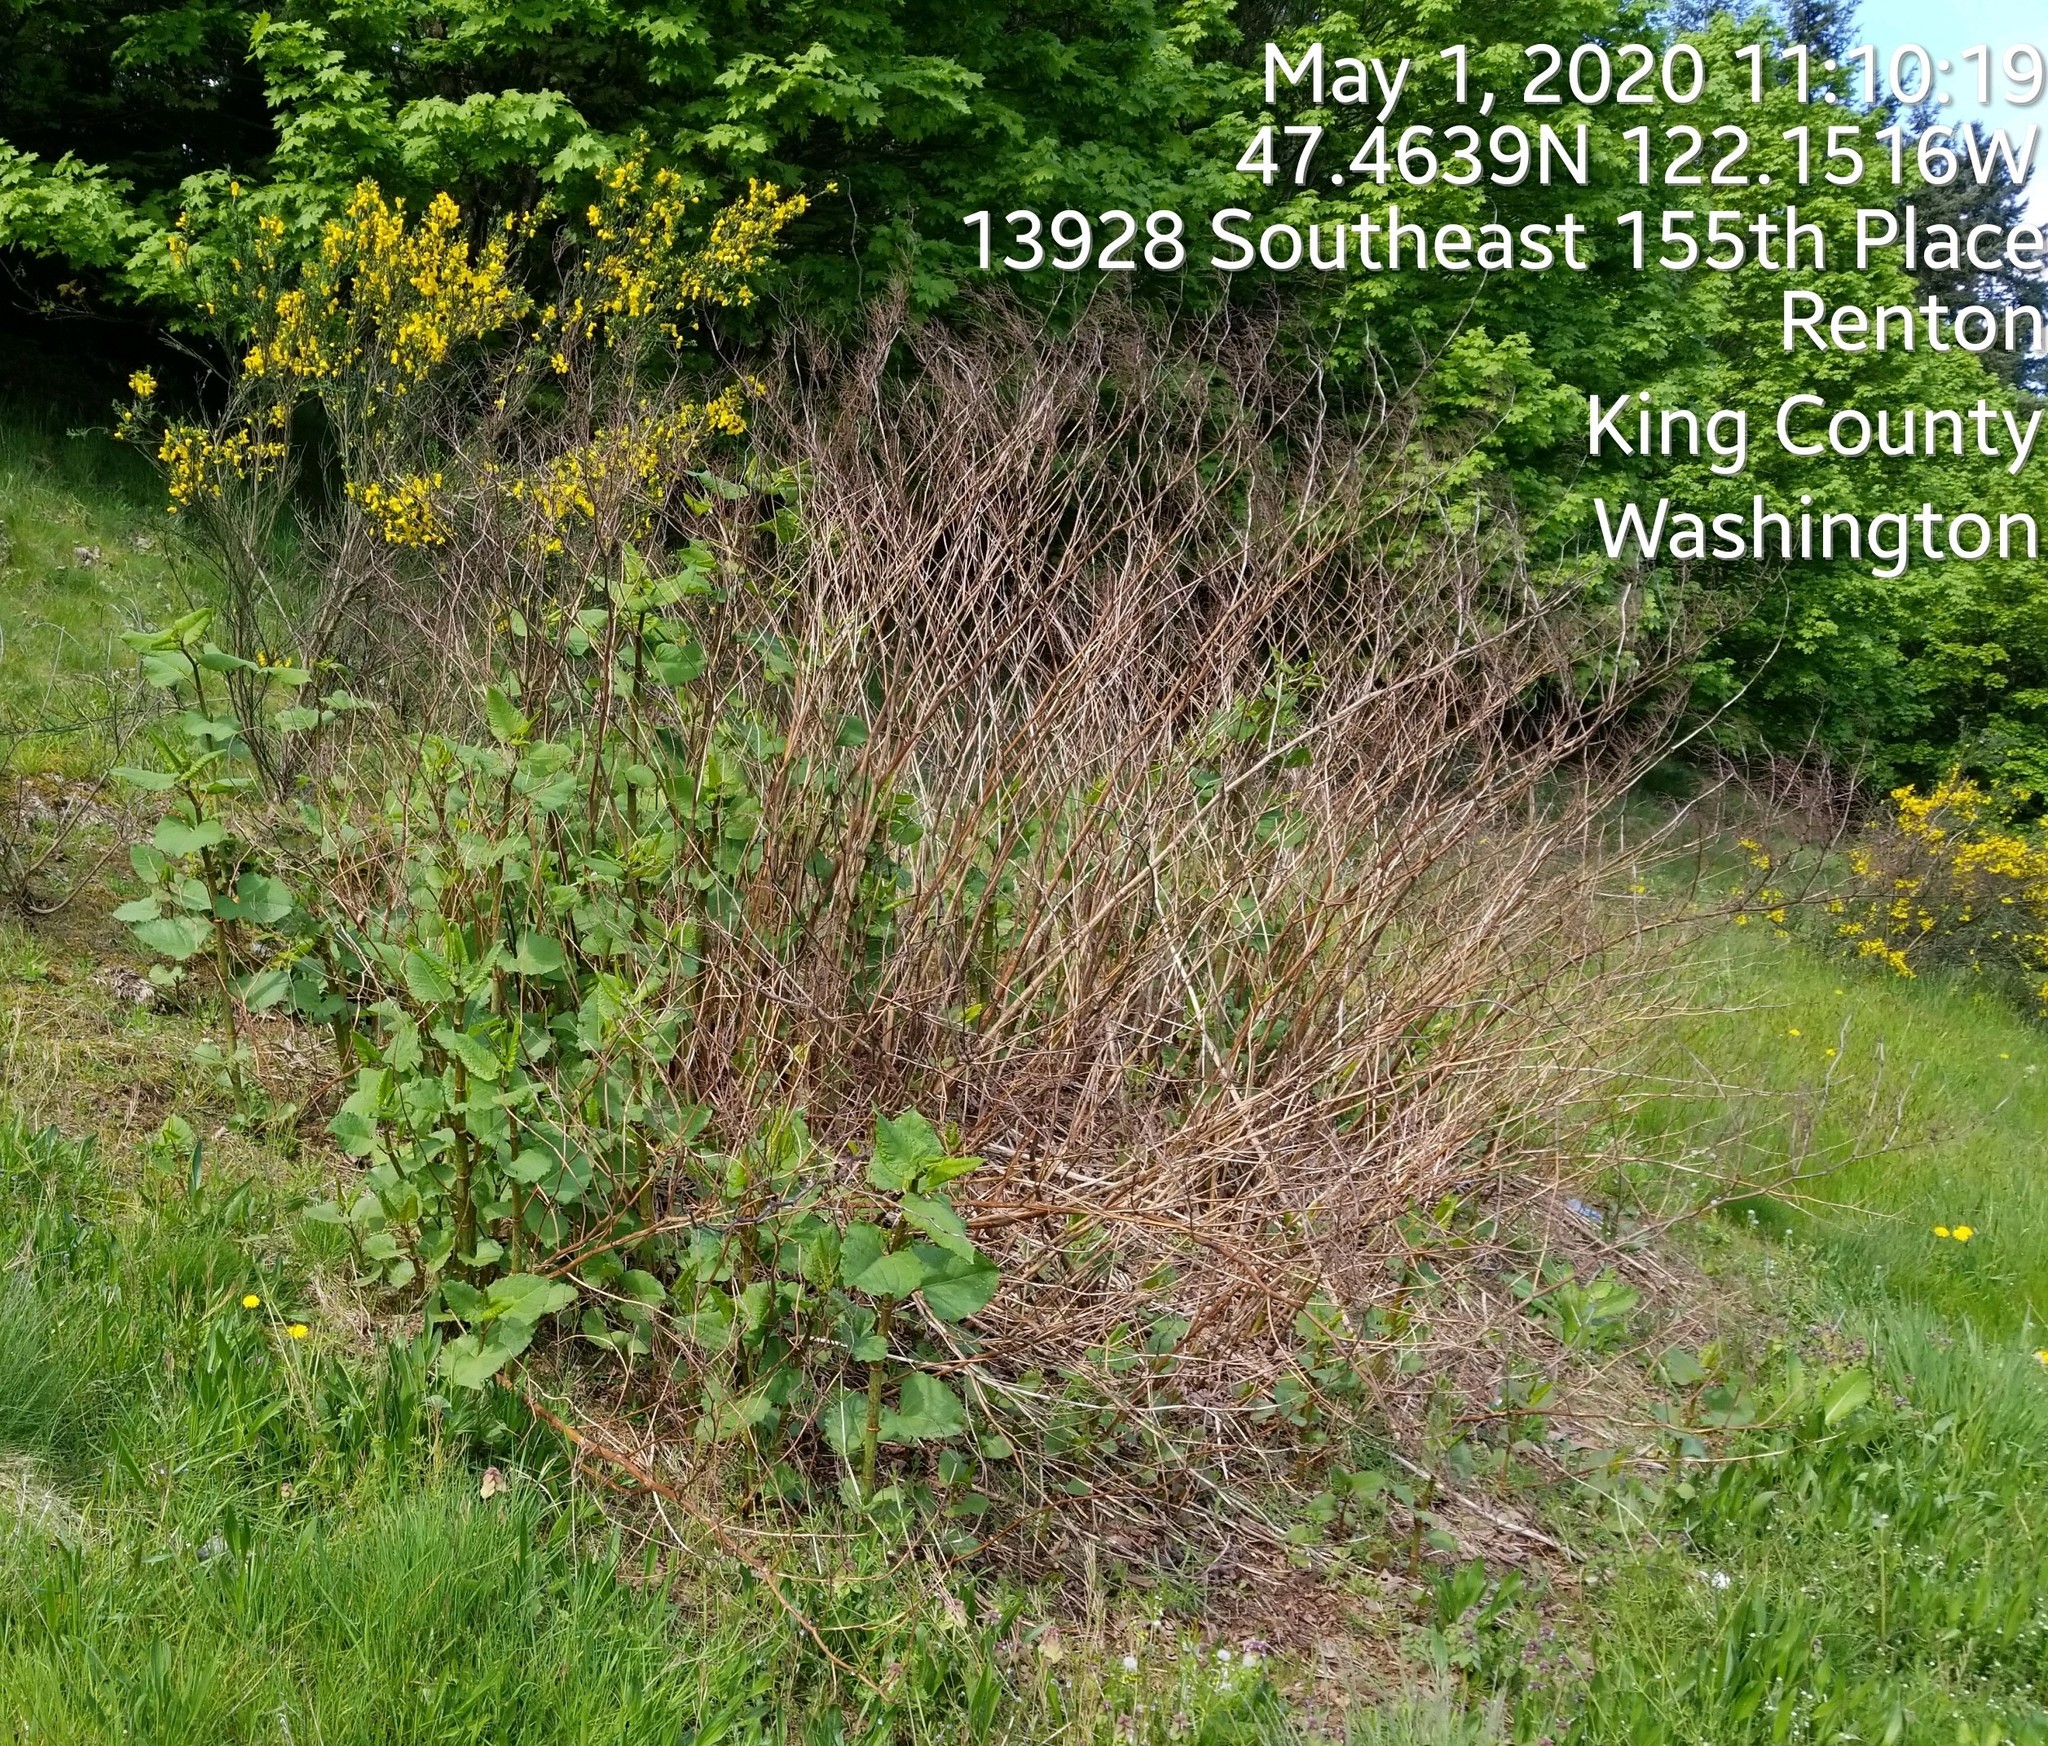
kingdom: Plantae
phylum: Tracheophyta
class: Magnoliopsida
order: Caryophyllales
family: Polygonaceae
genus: Reynoutria
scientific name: Reynoutria bohemica
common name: Bohemian knotweed
